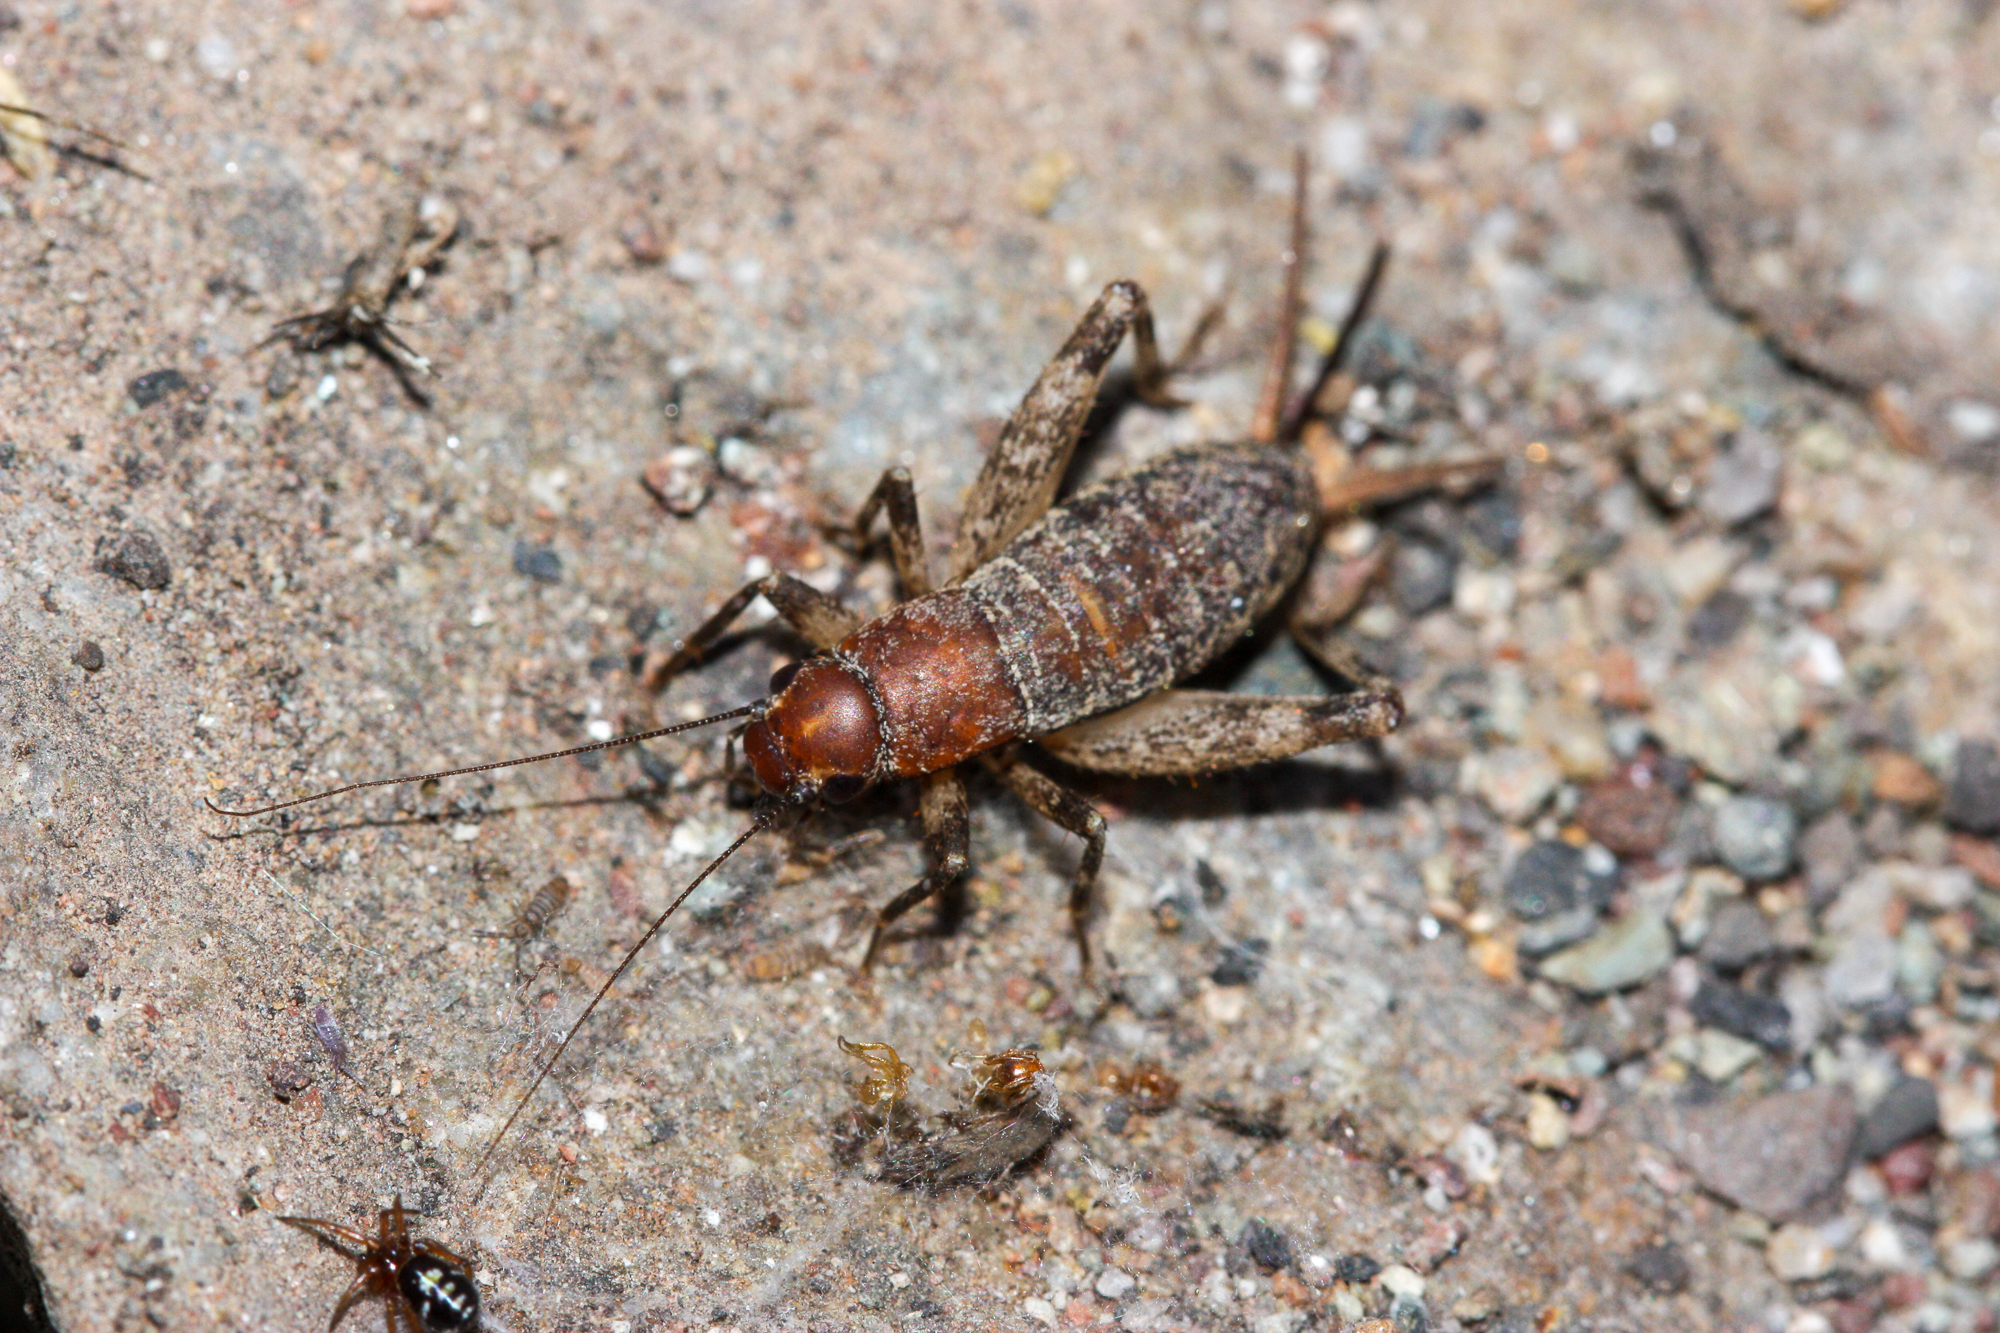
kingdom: Animalia
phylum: Arthropoda
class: Insecta
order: Orthoptera
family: Mogoplistidae
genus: Hoplosphyrum
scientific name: Hoplosphyrum boreale
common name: Long-winged scaly cricket
